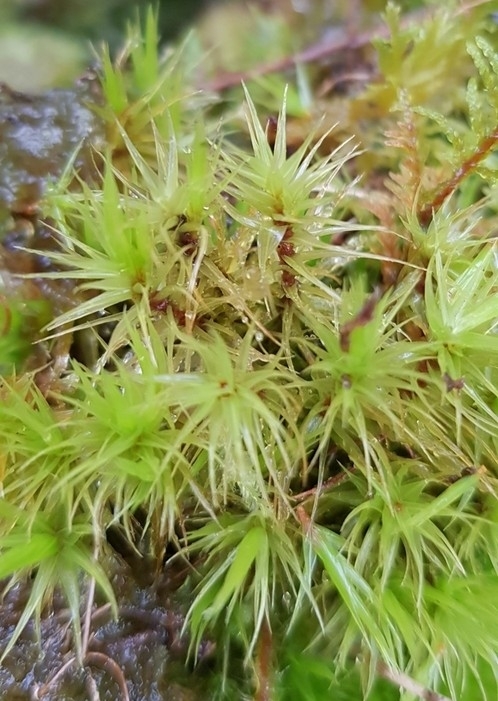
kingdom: Plantae
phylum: Bryophyta
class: Bryopsida
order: Dicranales
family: Dicranaceae
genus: Dicranum
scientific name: Dicranum scoparium
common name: Broom fork-moss
